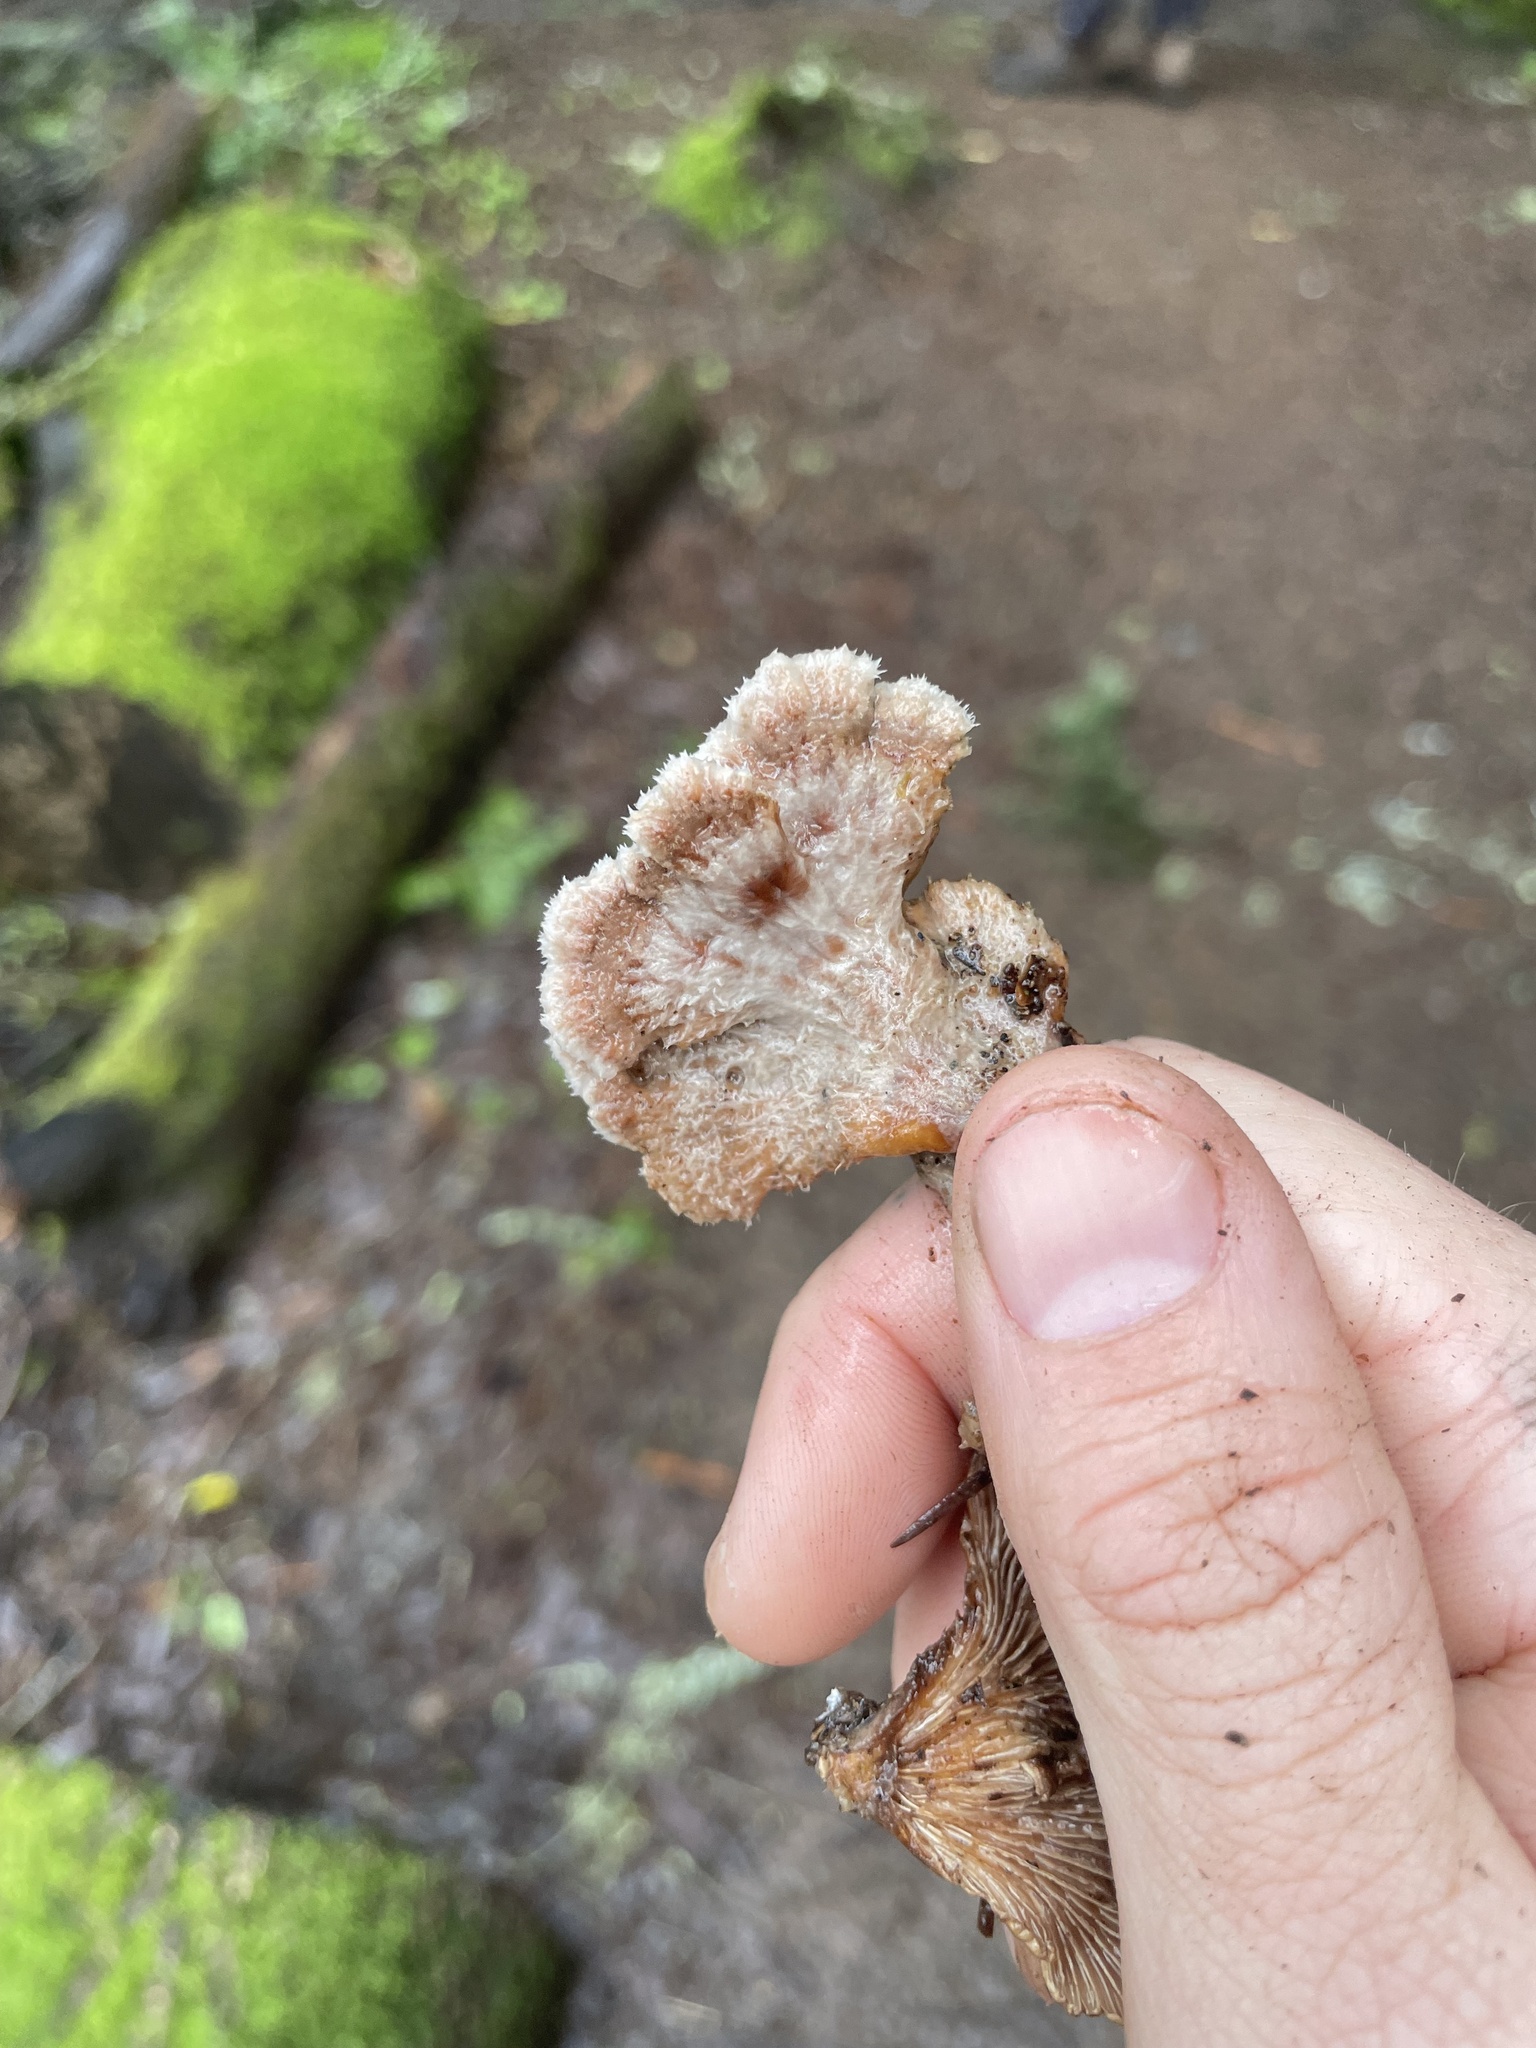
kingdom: Fungi
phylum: Basidiomycota
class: Agaricomycetes
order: Agaricales
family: Schizophyllaceae
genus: Schizophyllum
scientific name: Schizophyllum commune
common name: Common porecrust
